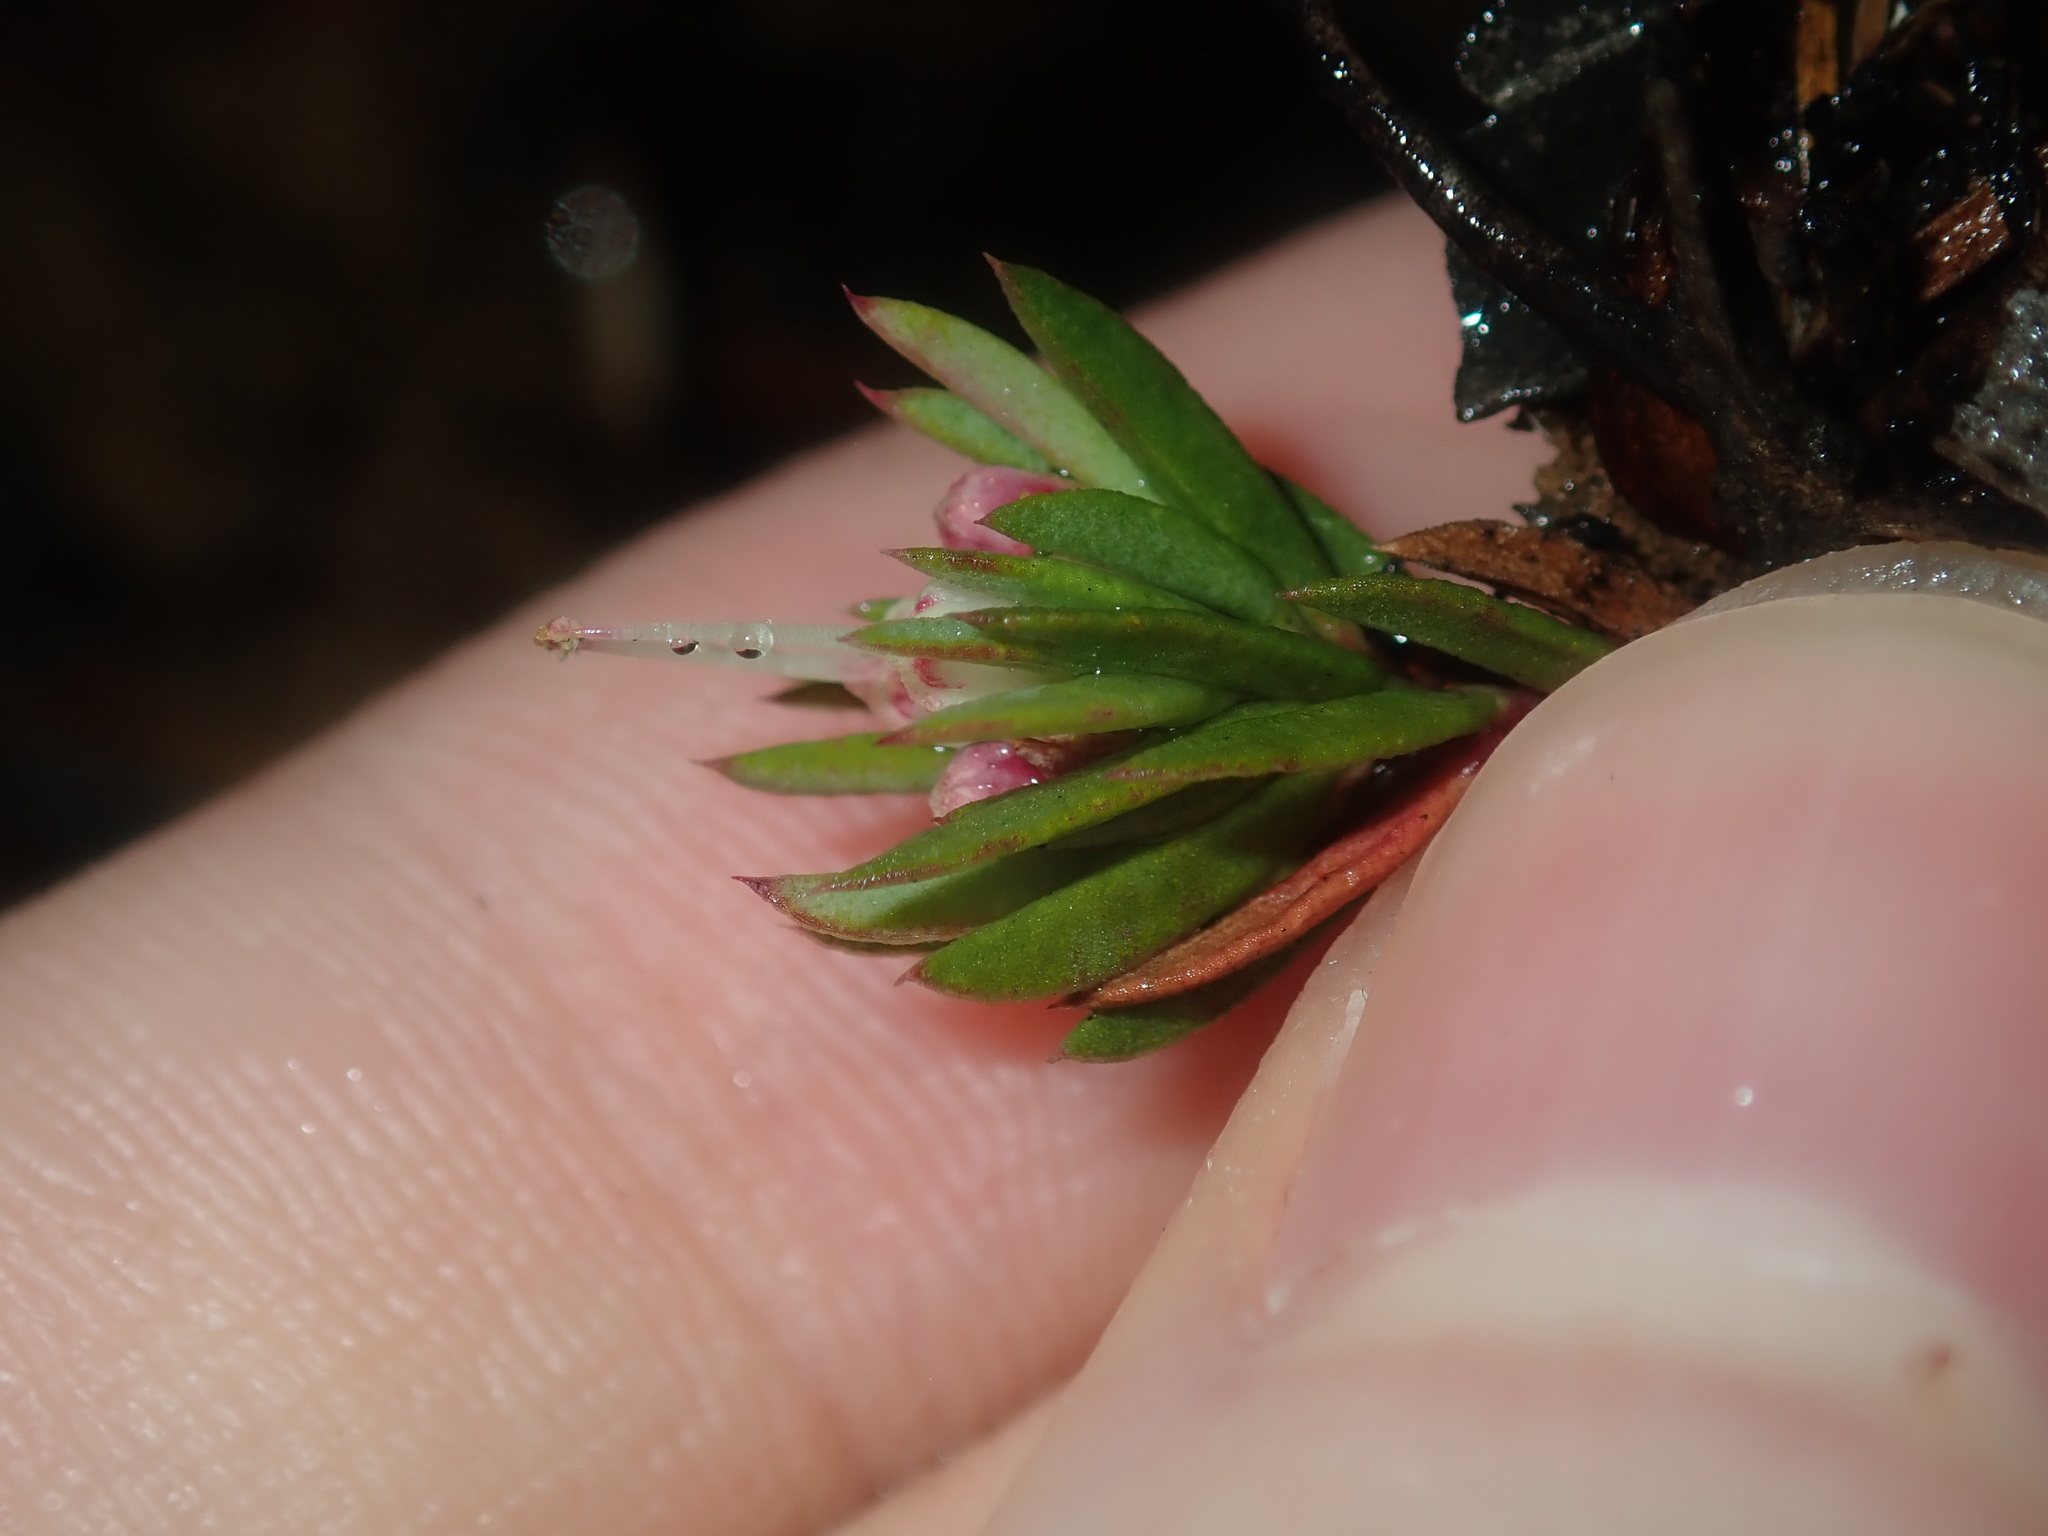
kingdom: Plantae
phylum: Tracheophyta
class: Magnoliopsida
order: Myrtales
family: Myrtaceae
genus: Darwinia
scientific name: Darwinia diminuta
